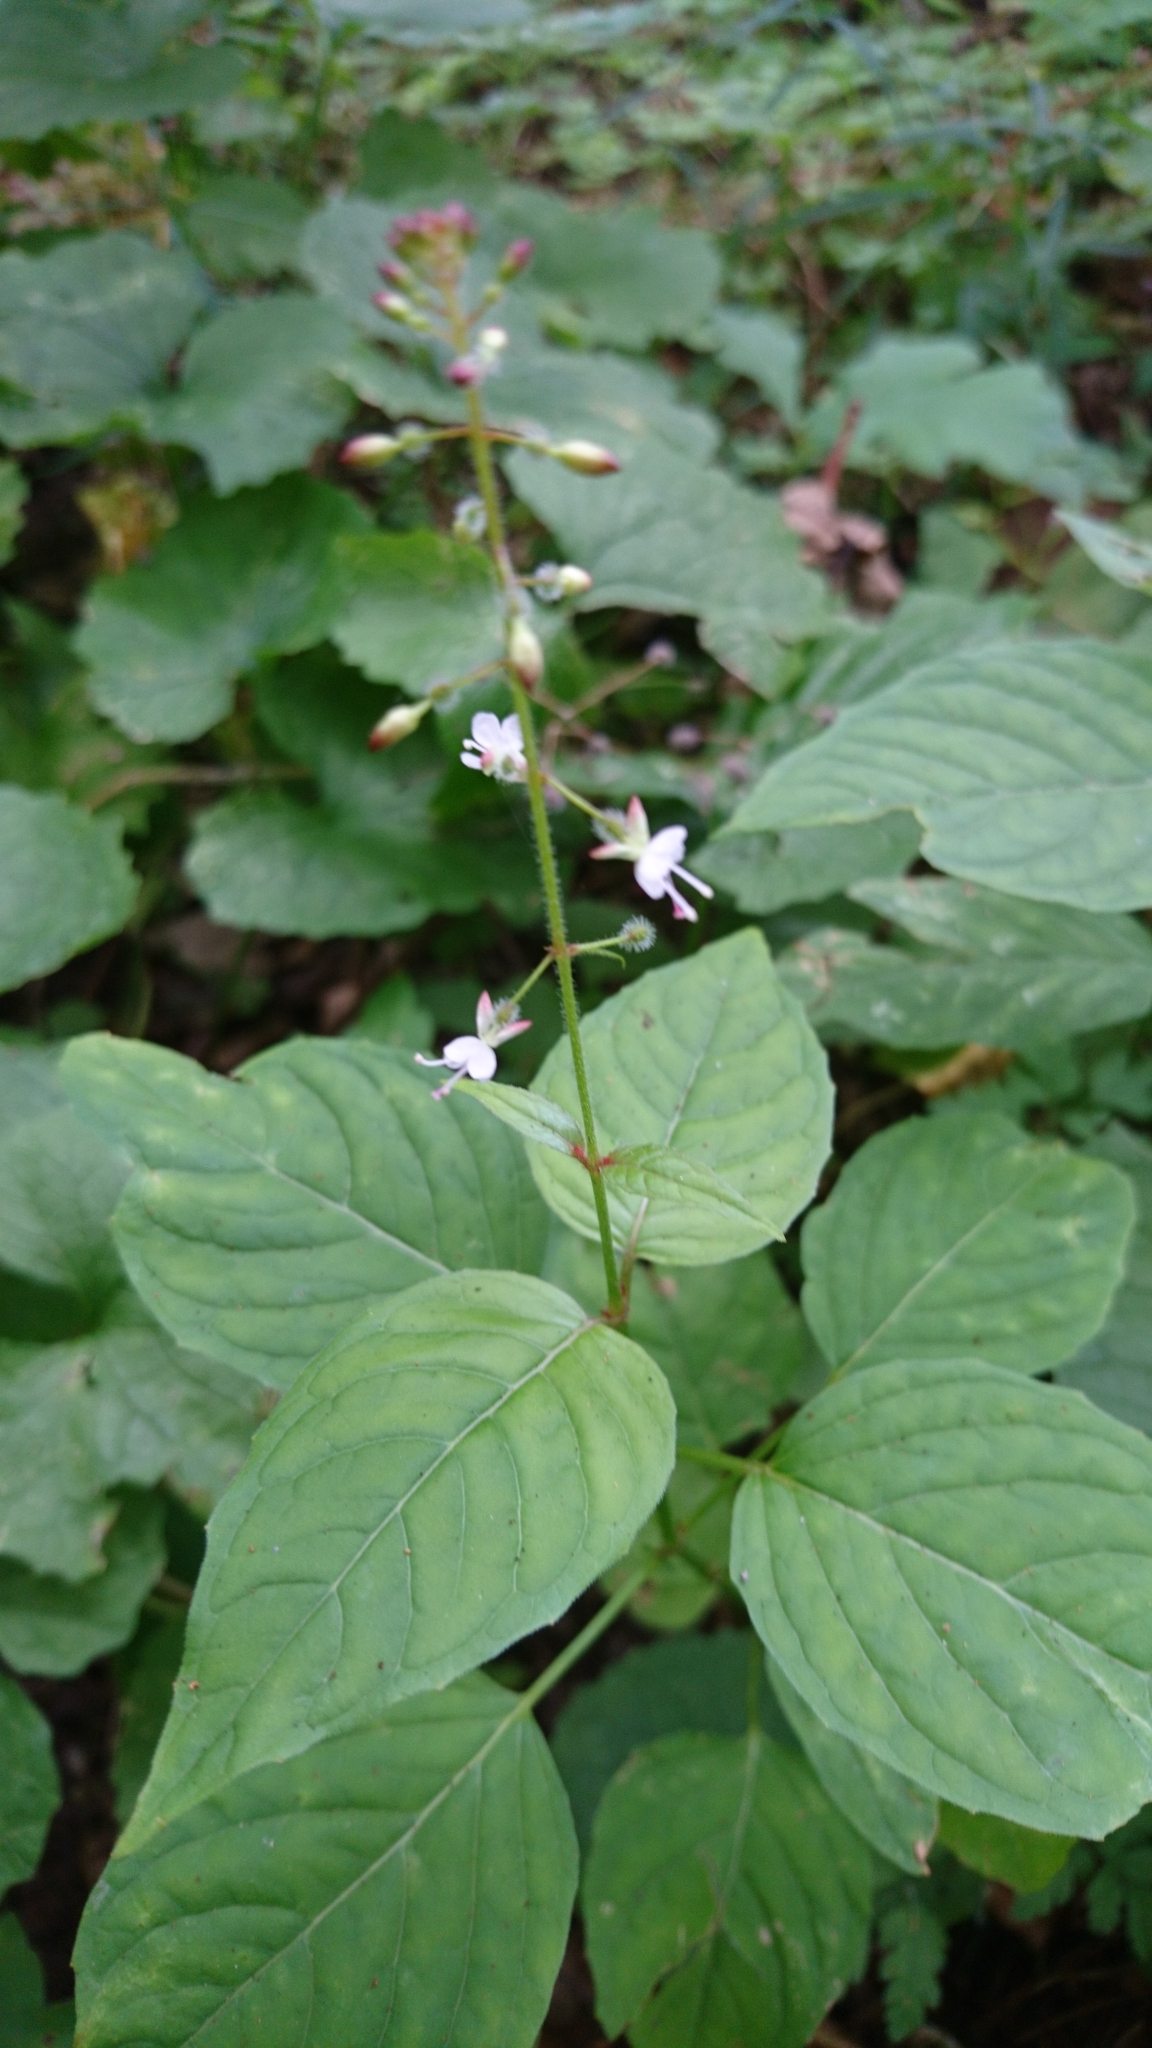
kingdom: Plantae
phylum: Tracheophyta
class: Magnoliopsida
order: Myrtales
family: Onagraceae
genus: Circaea
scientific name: Circaea lutetiana
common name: Enchanter's-nightshade
